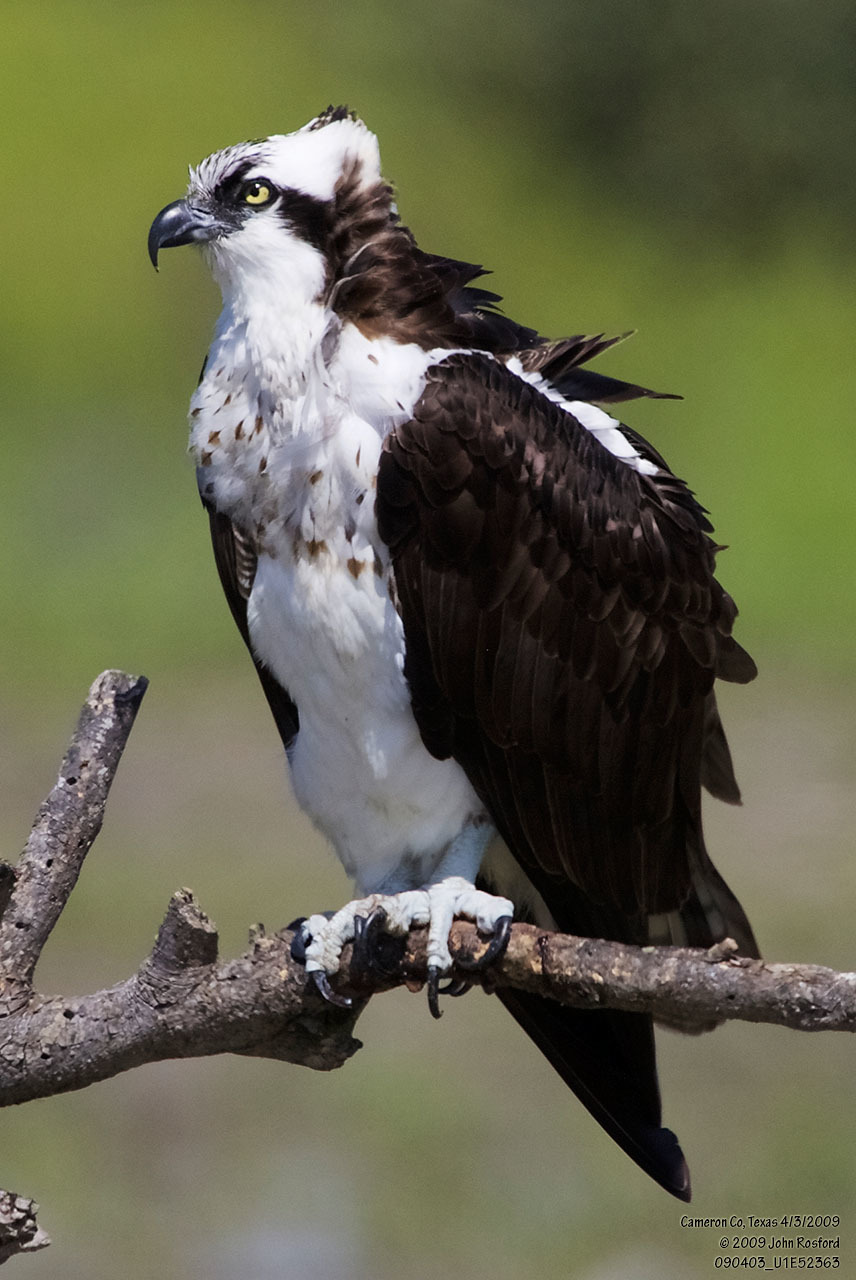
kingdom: Animalia
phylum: Chordata
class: Aves
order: Accipitriformes
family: Pandionidae
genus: Pandion
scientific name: Pandion haliaetus
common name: Osprey
